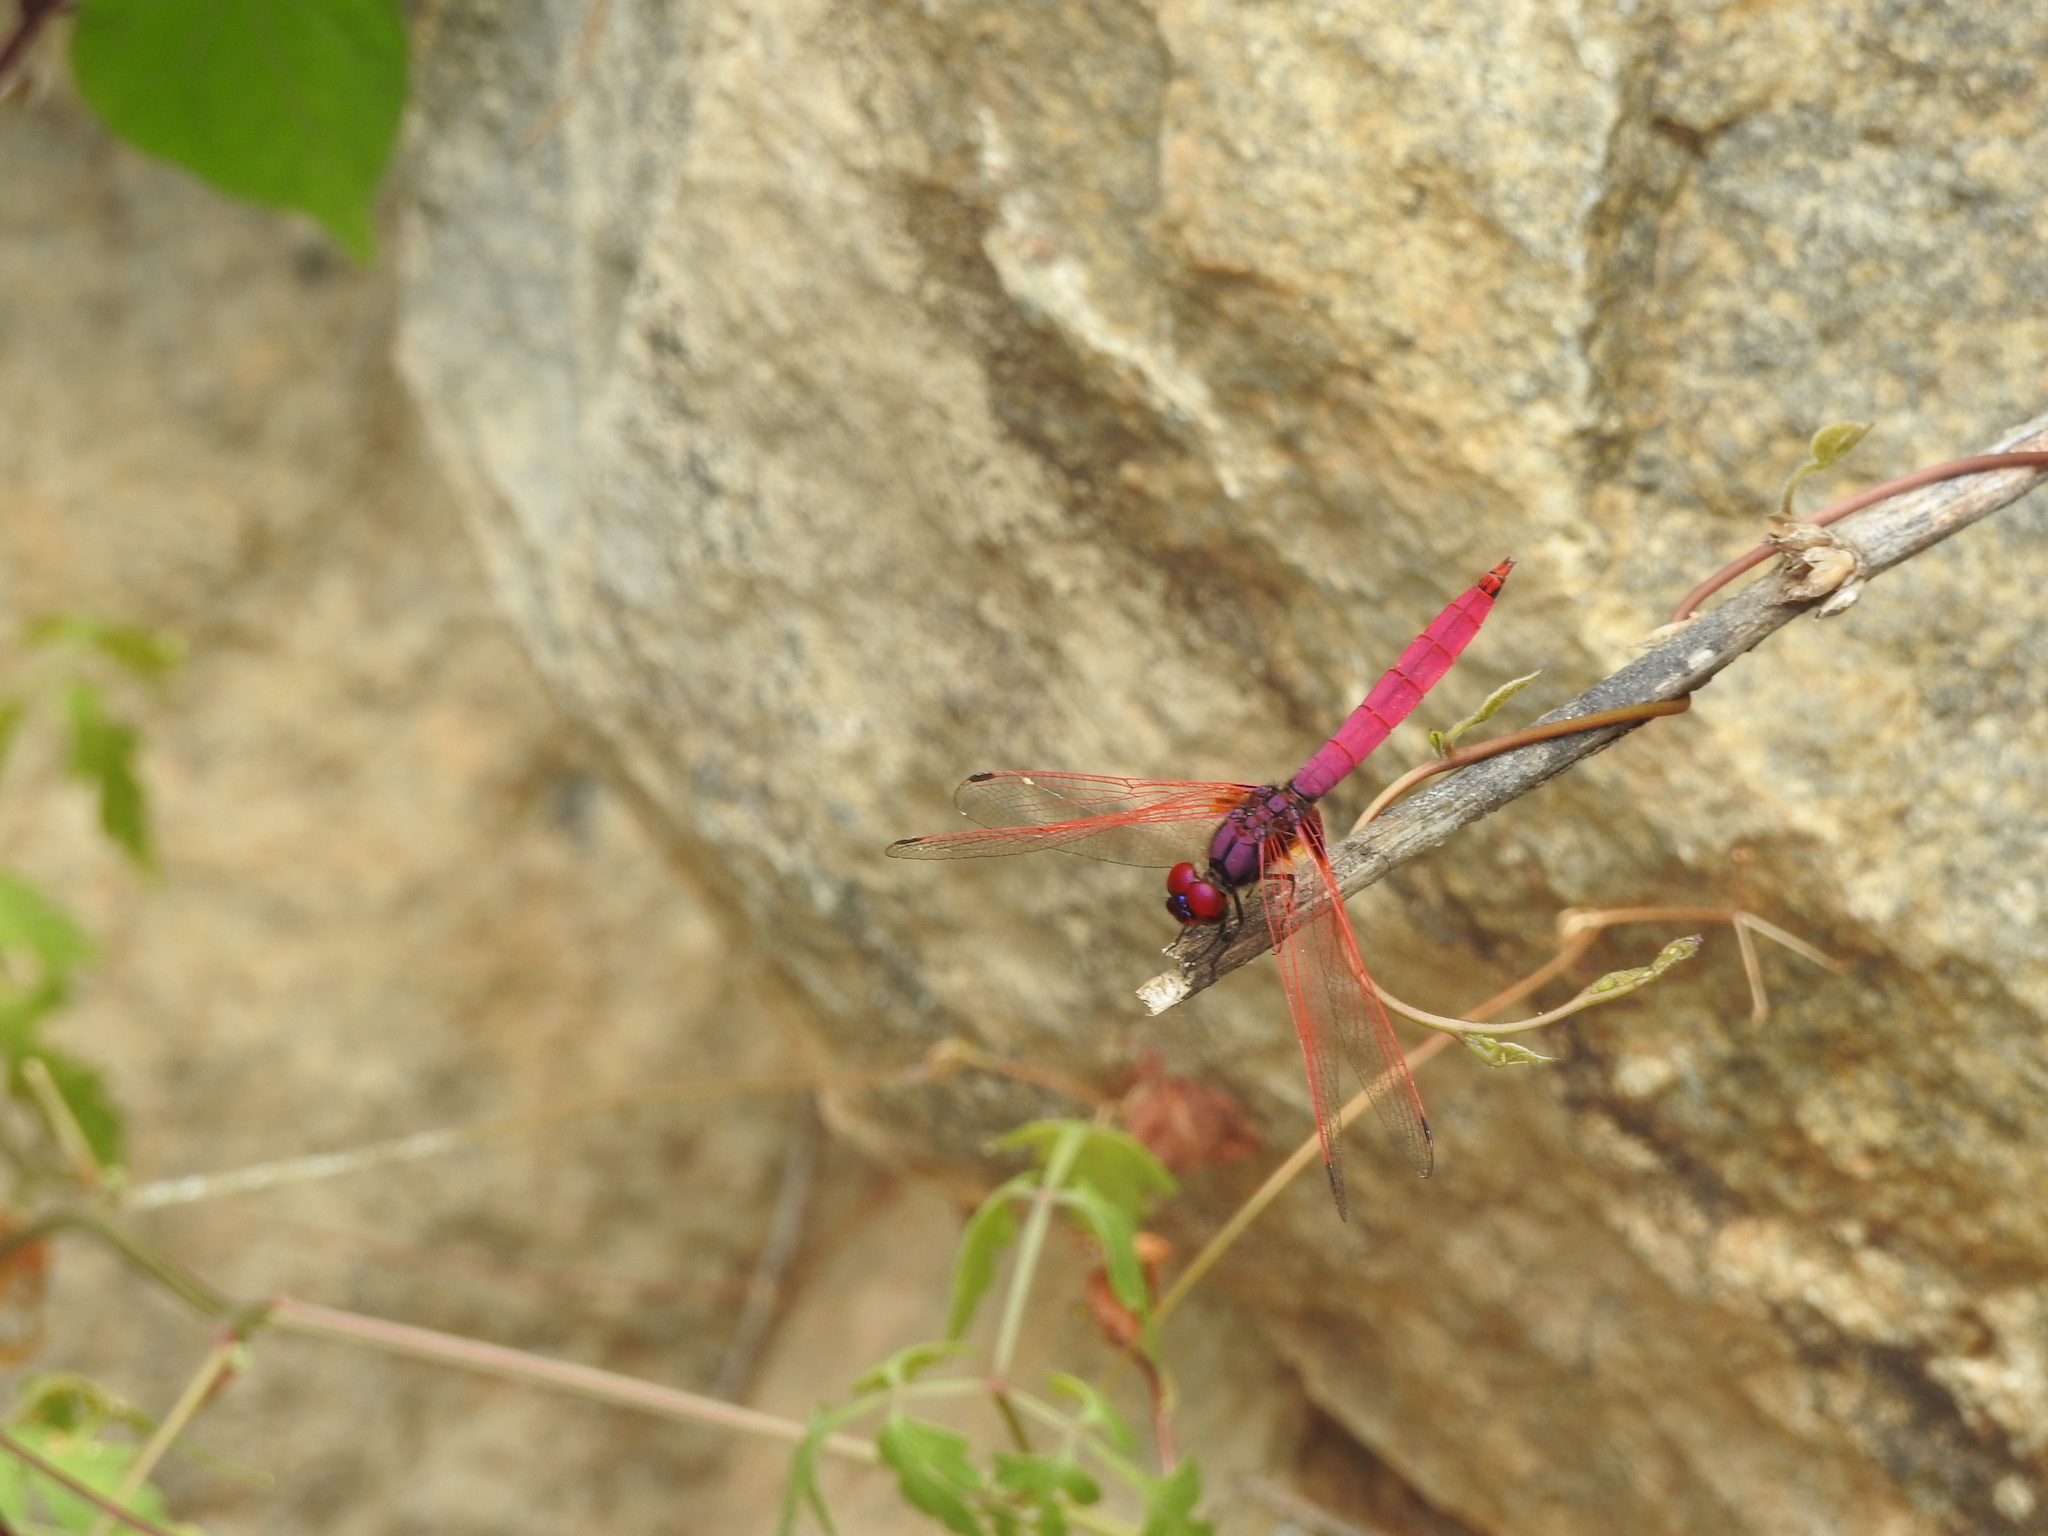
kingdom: Animalia
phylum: Arthropoda
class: Insecta
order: Odonata
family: Libellulidae
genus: Trithemis
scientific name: Trithemis aurora
